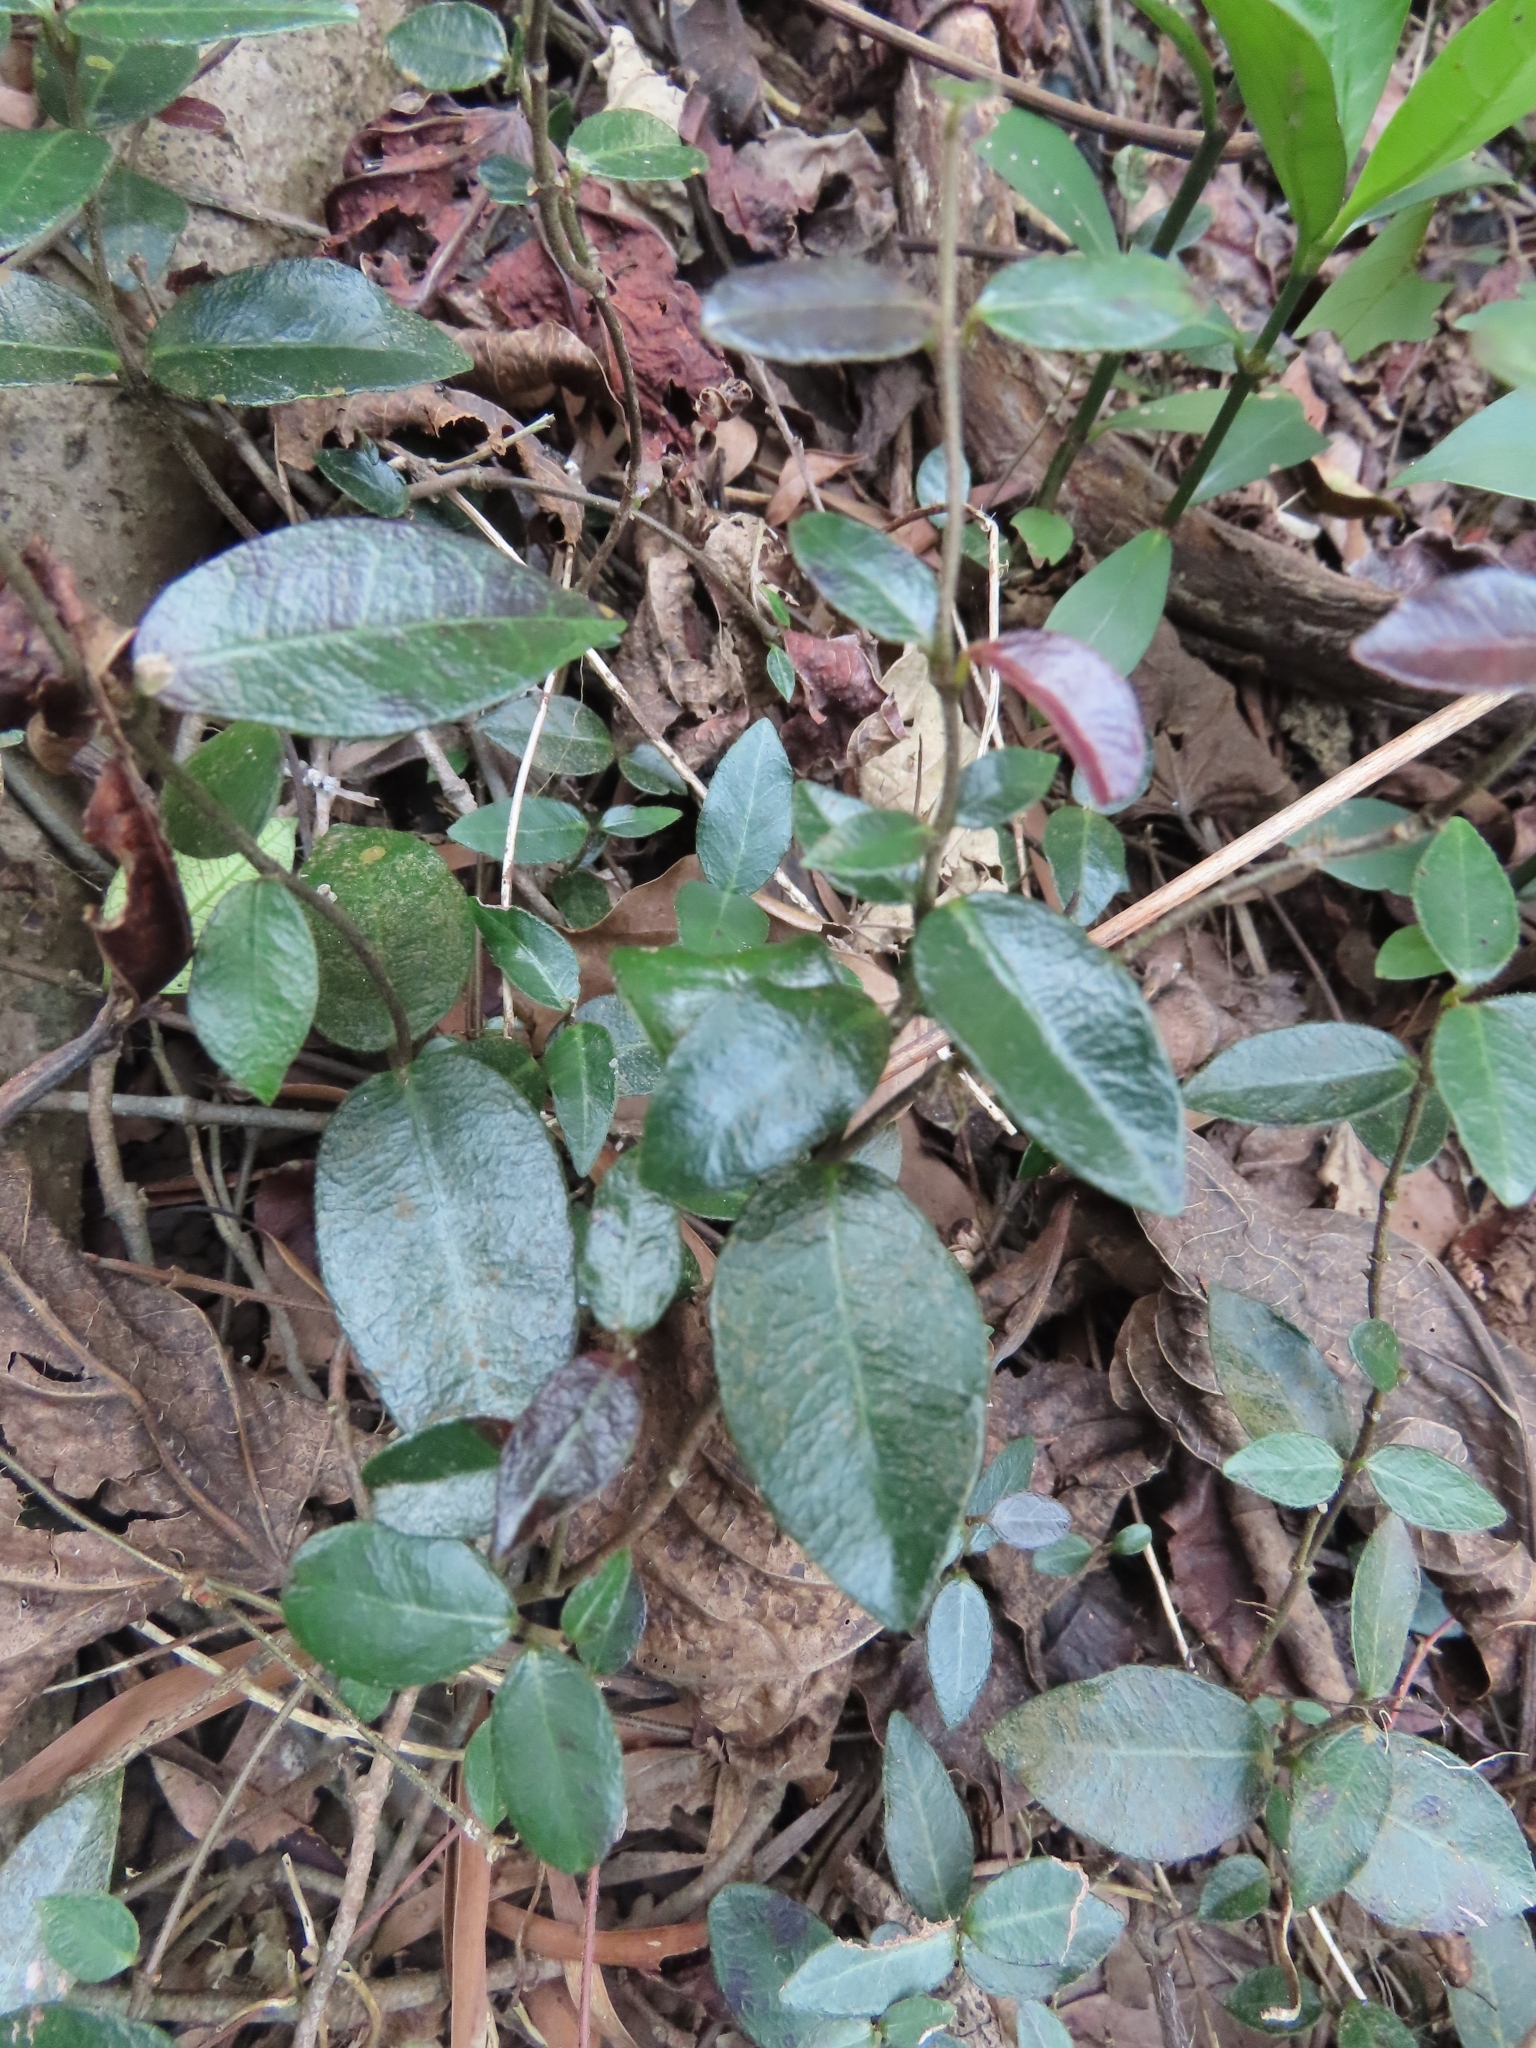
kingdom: Plantae
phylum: Tracheophyta
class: Magnoliopsida
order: Gentianales
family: Apocynaceae
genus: Trachelospermum
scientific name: Trachelospermum jasminoides
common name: Confederate jasmine
